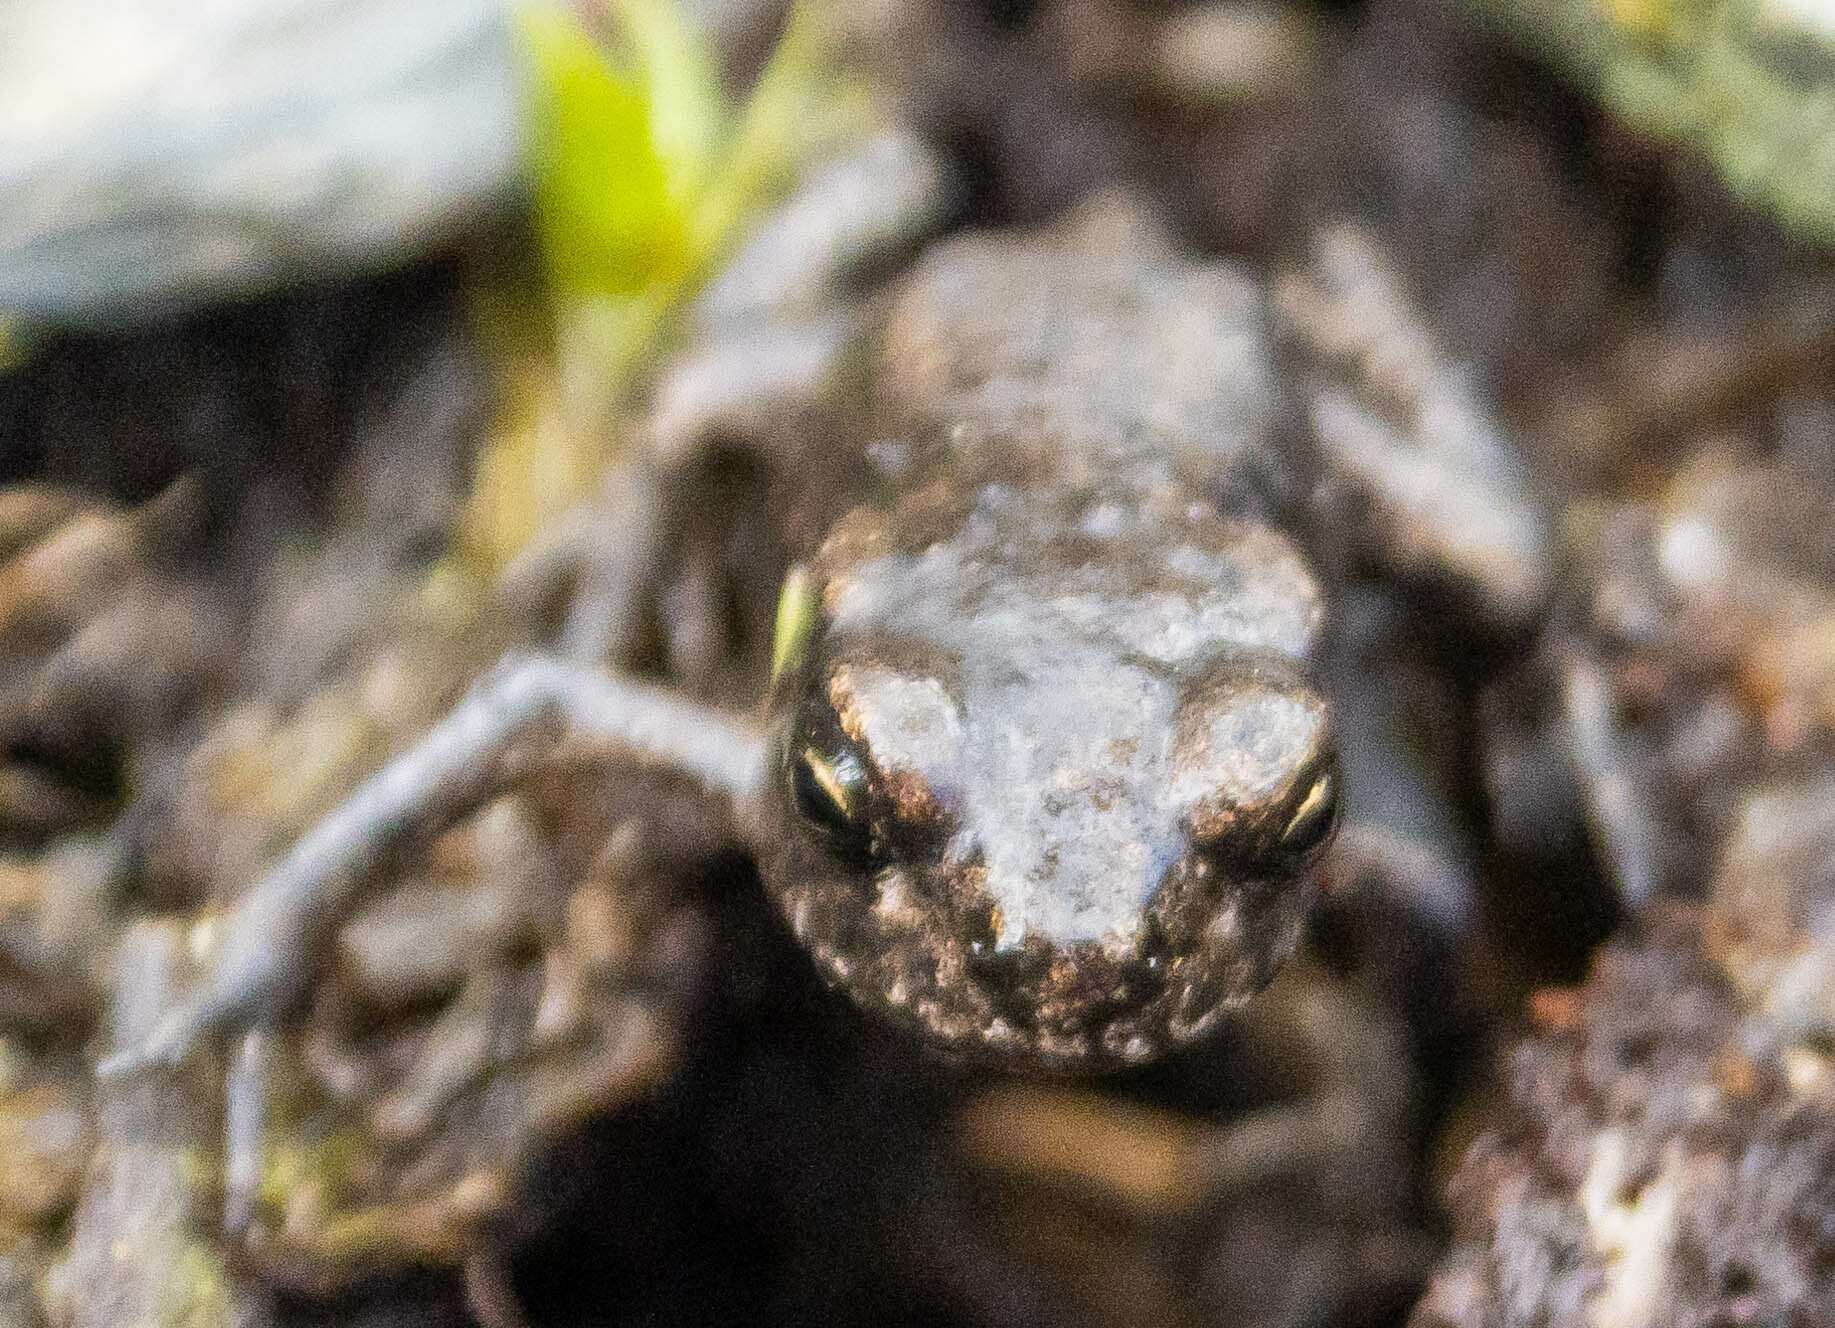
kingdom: Animalia
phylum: Chordata
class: Amphibia
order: Anura
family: Bufonidae
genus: Bufo
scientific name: Bufo bufo
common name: Common toad
